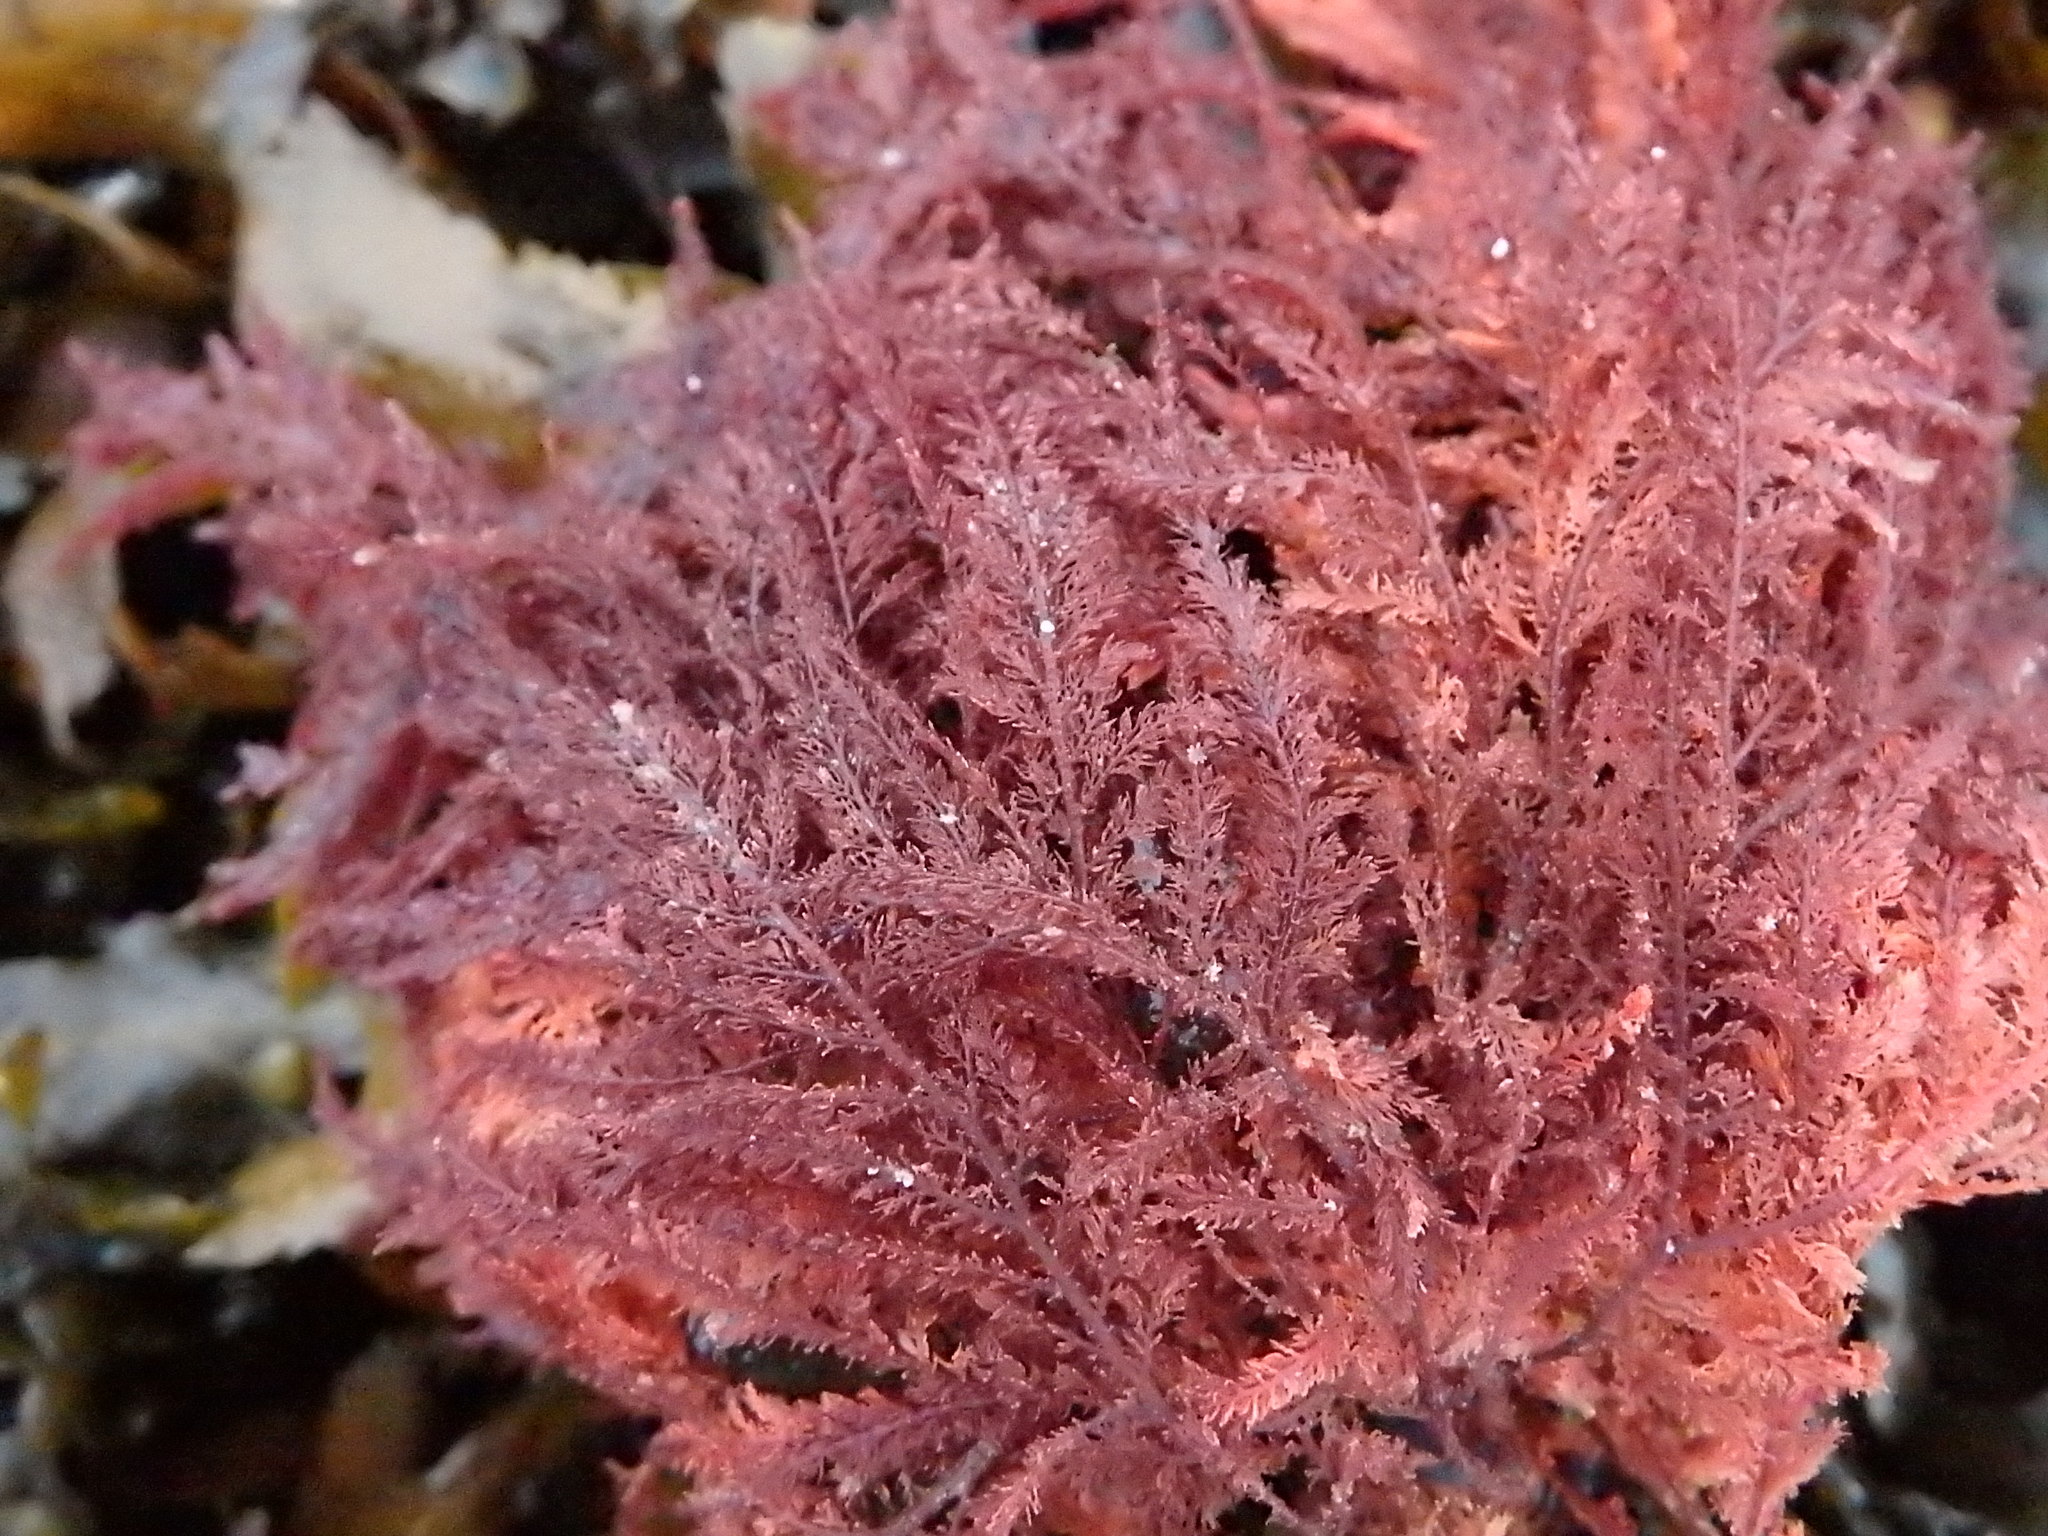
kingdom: Plantae
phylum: Rhodophyta
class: Florideophyceae
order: Ceramiales
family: Dasyaceae
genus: Heterosiphonia
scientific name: Heterosiphonia plumosa
